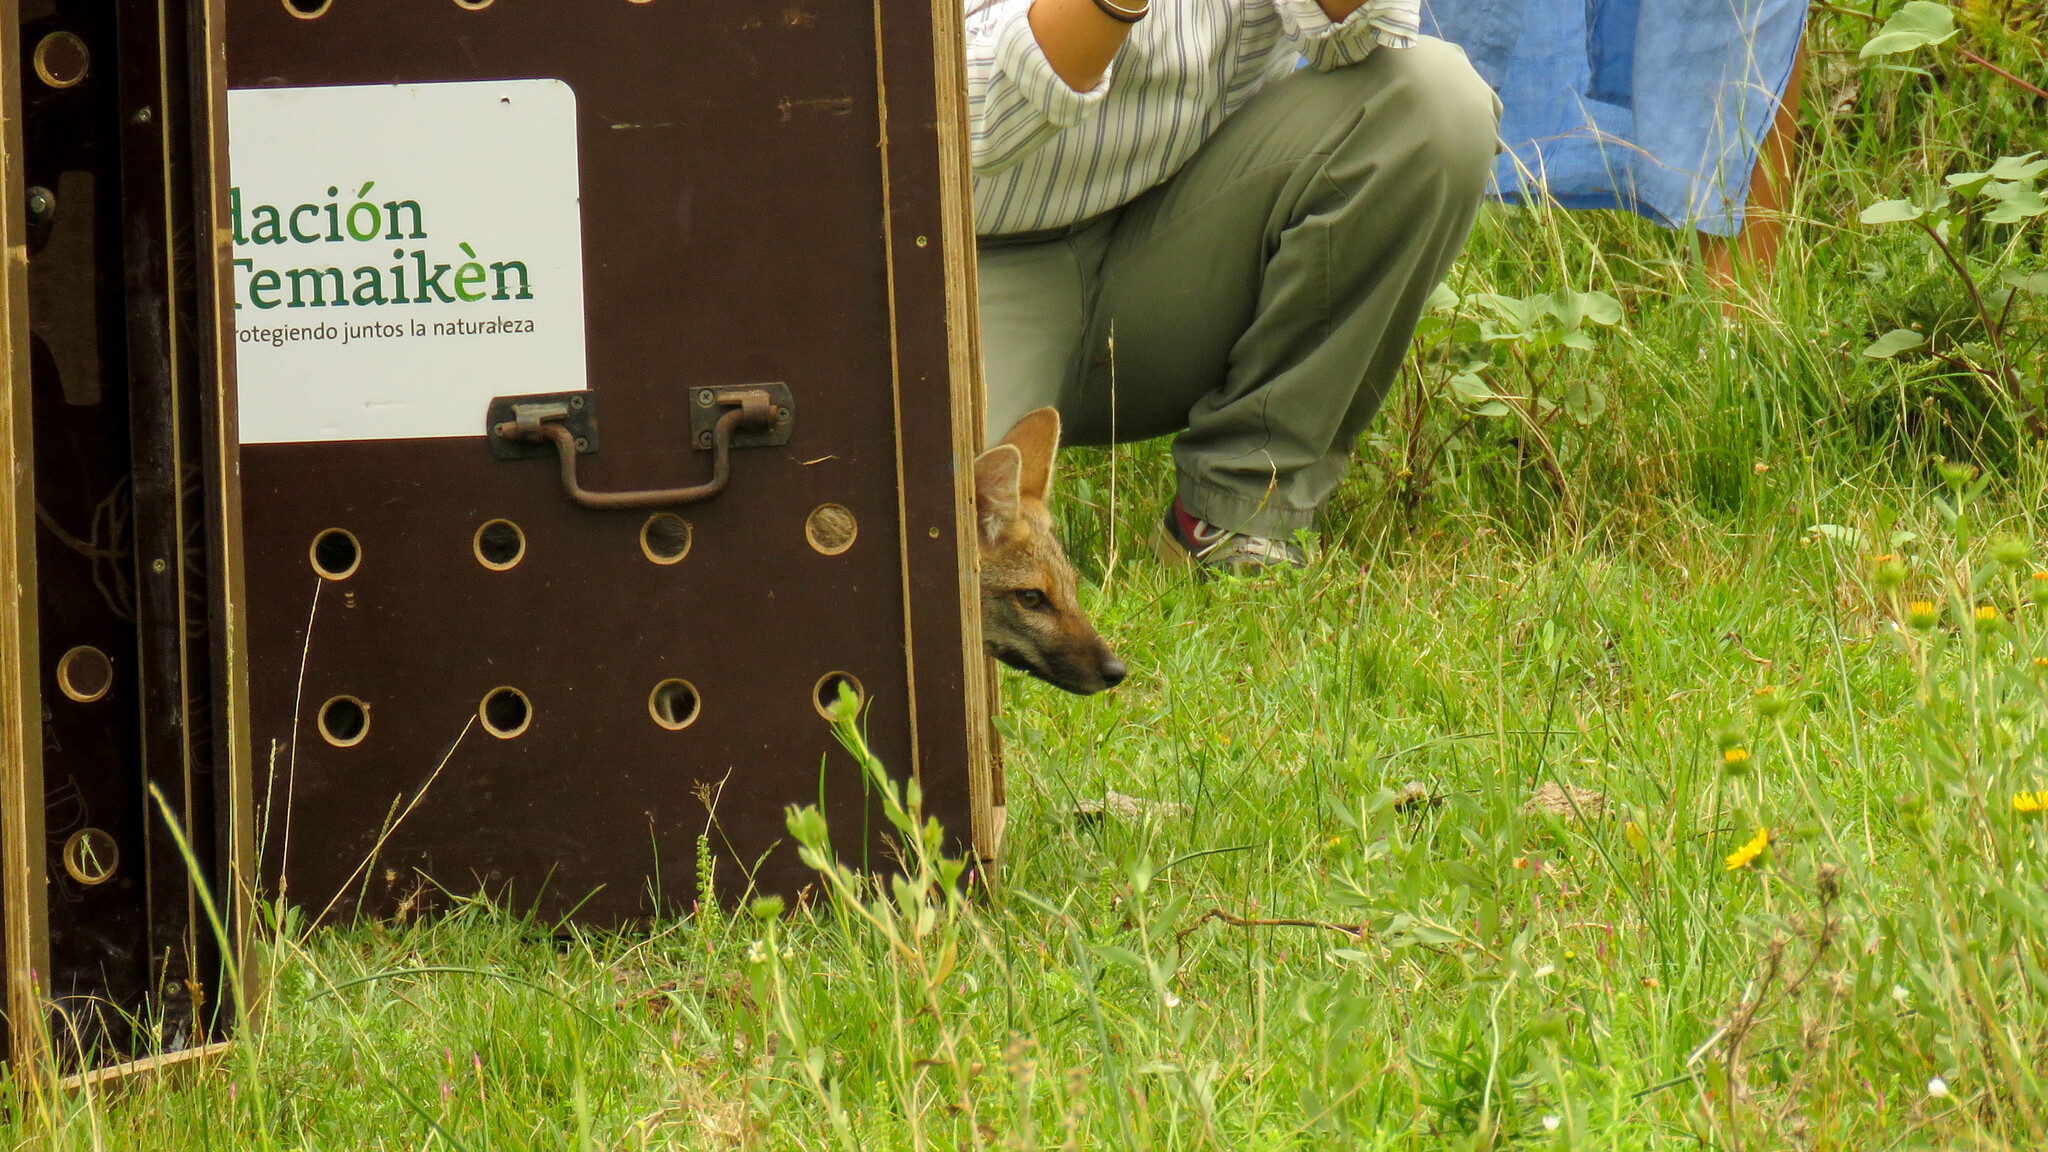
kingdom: Animalia
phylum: Chordata
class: Mammalia
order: Carnivora
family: Canidae
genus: Lycalopex
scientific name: Lycalopex gymnocercus
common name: Pampas fox
